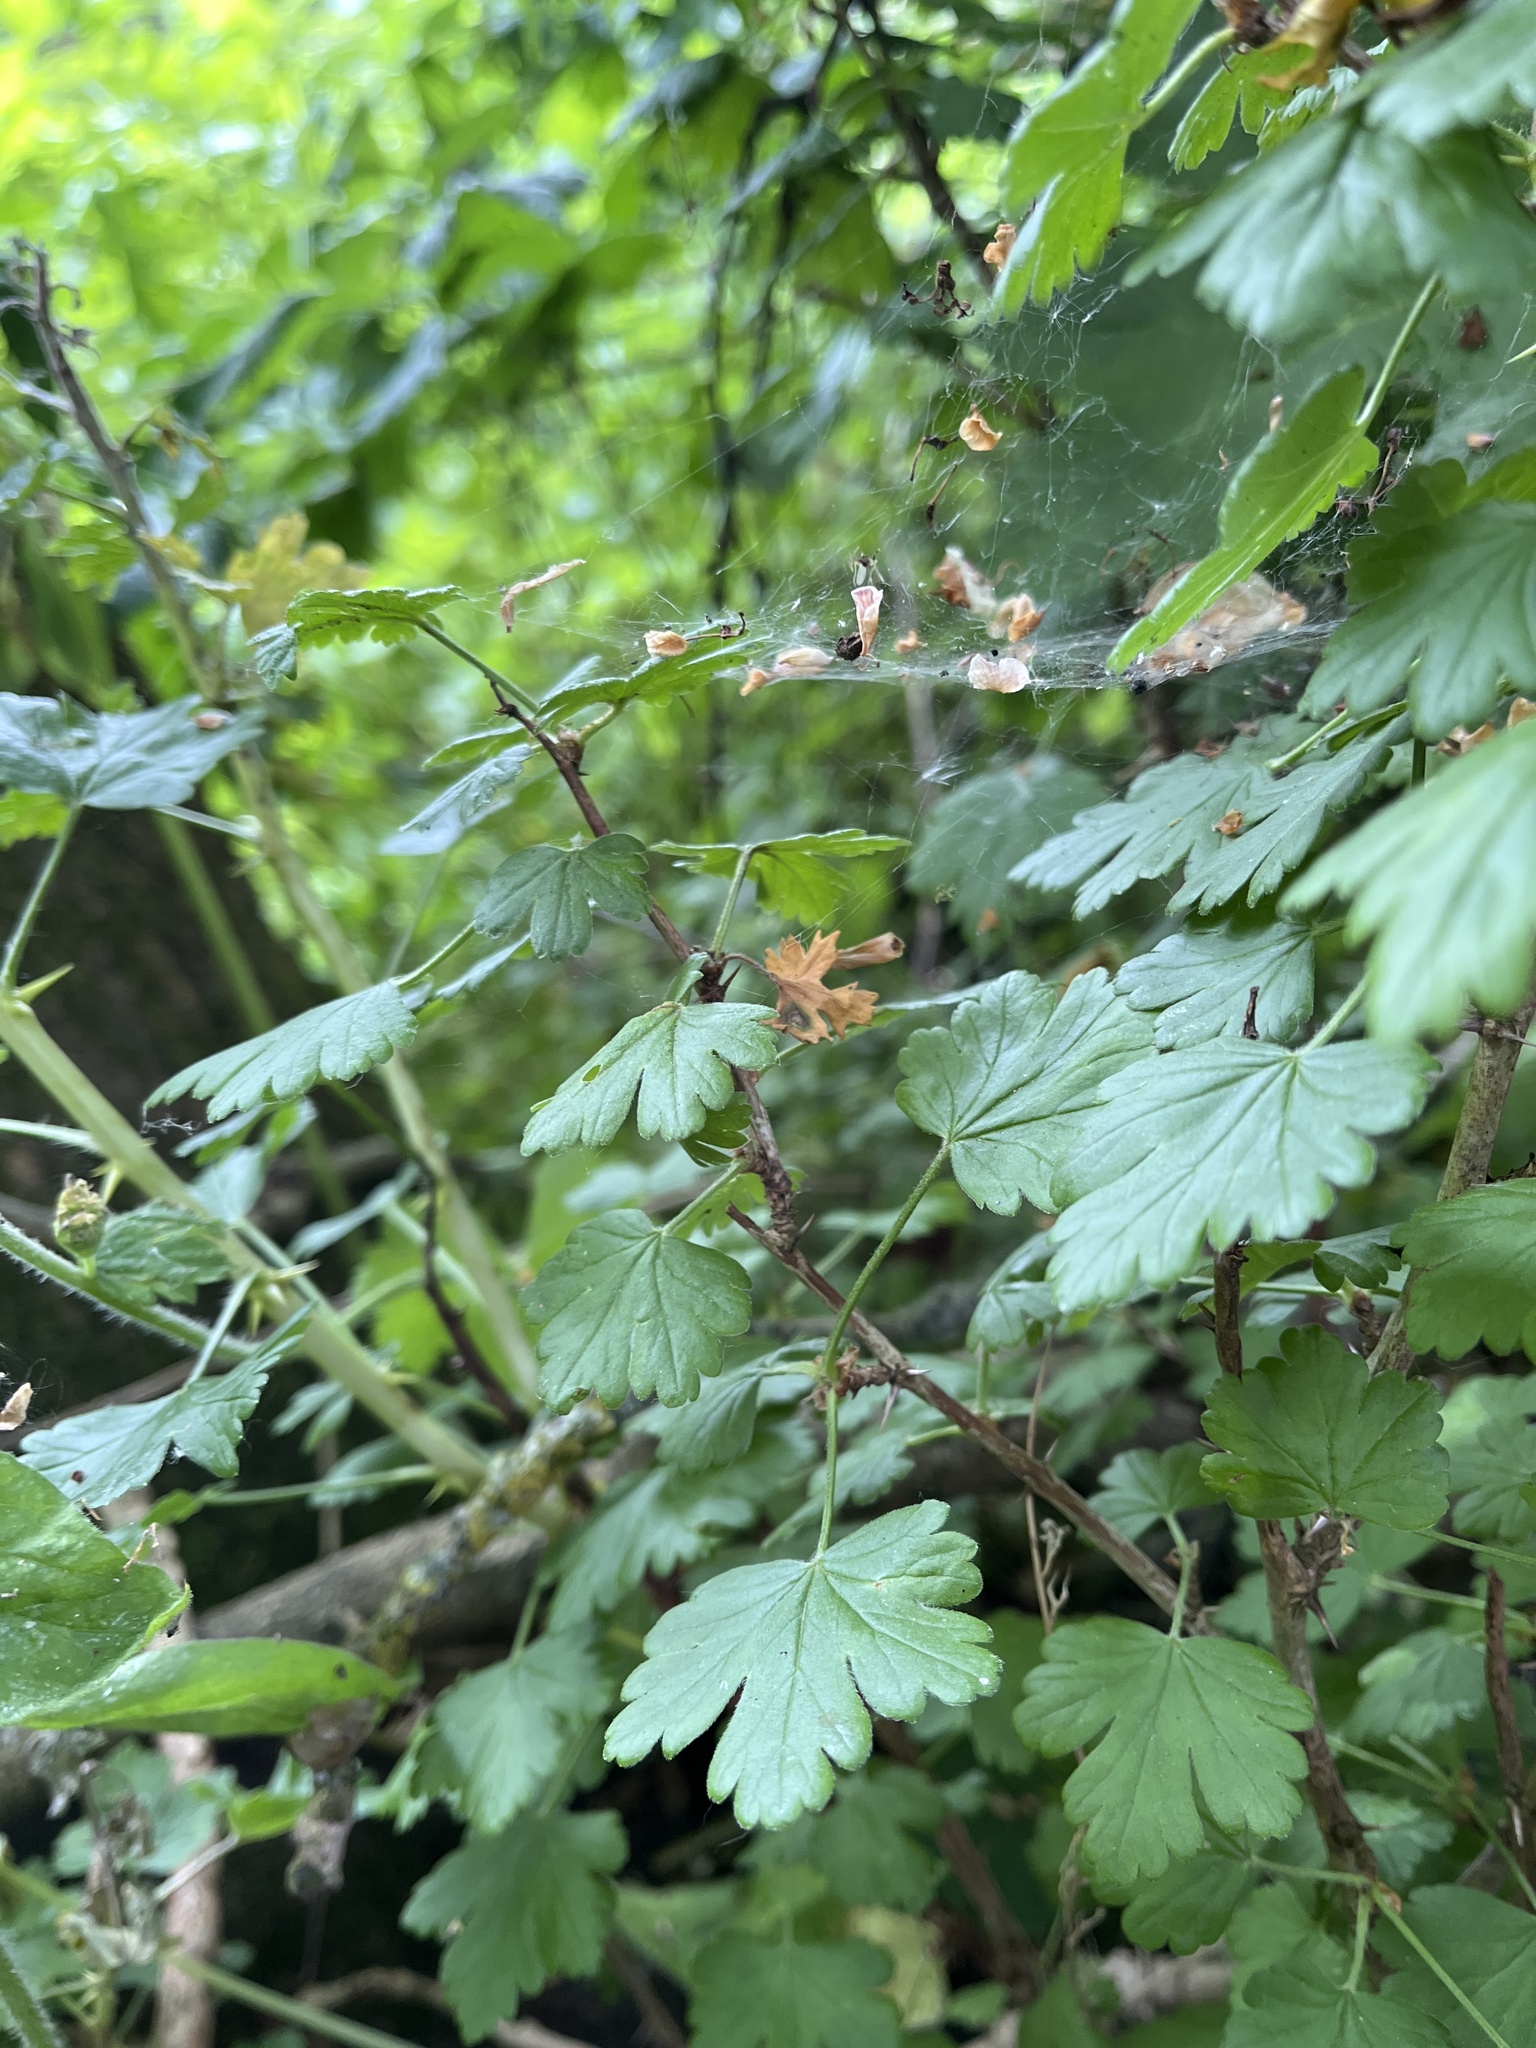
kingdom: Plantae
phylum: Tracheophyta
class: Magnoliopsida
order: Saxifragales
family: Grossulariaceae
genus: Ribes
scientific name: Ribes uva-crispa
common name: Gooseberry
